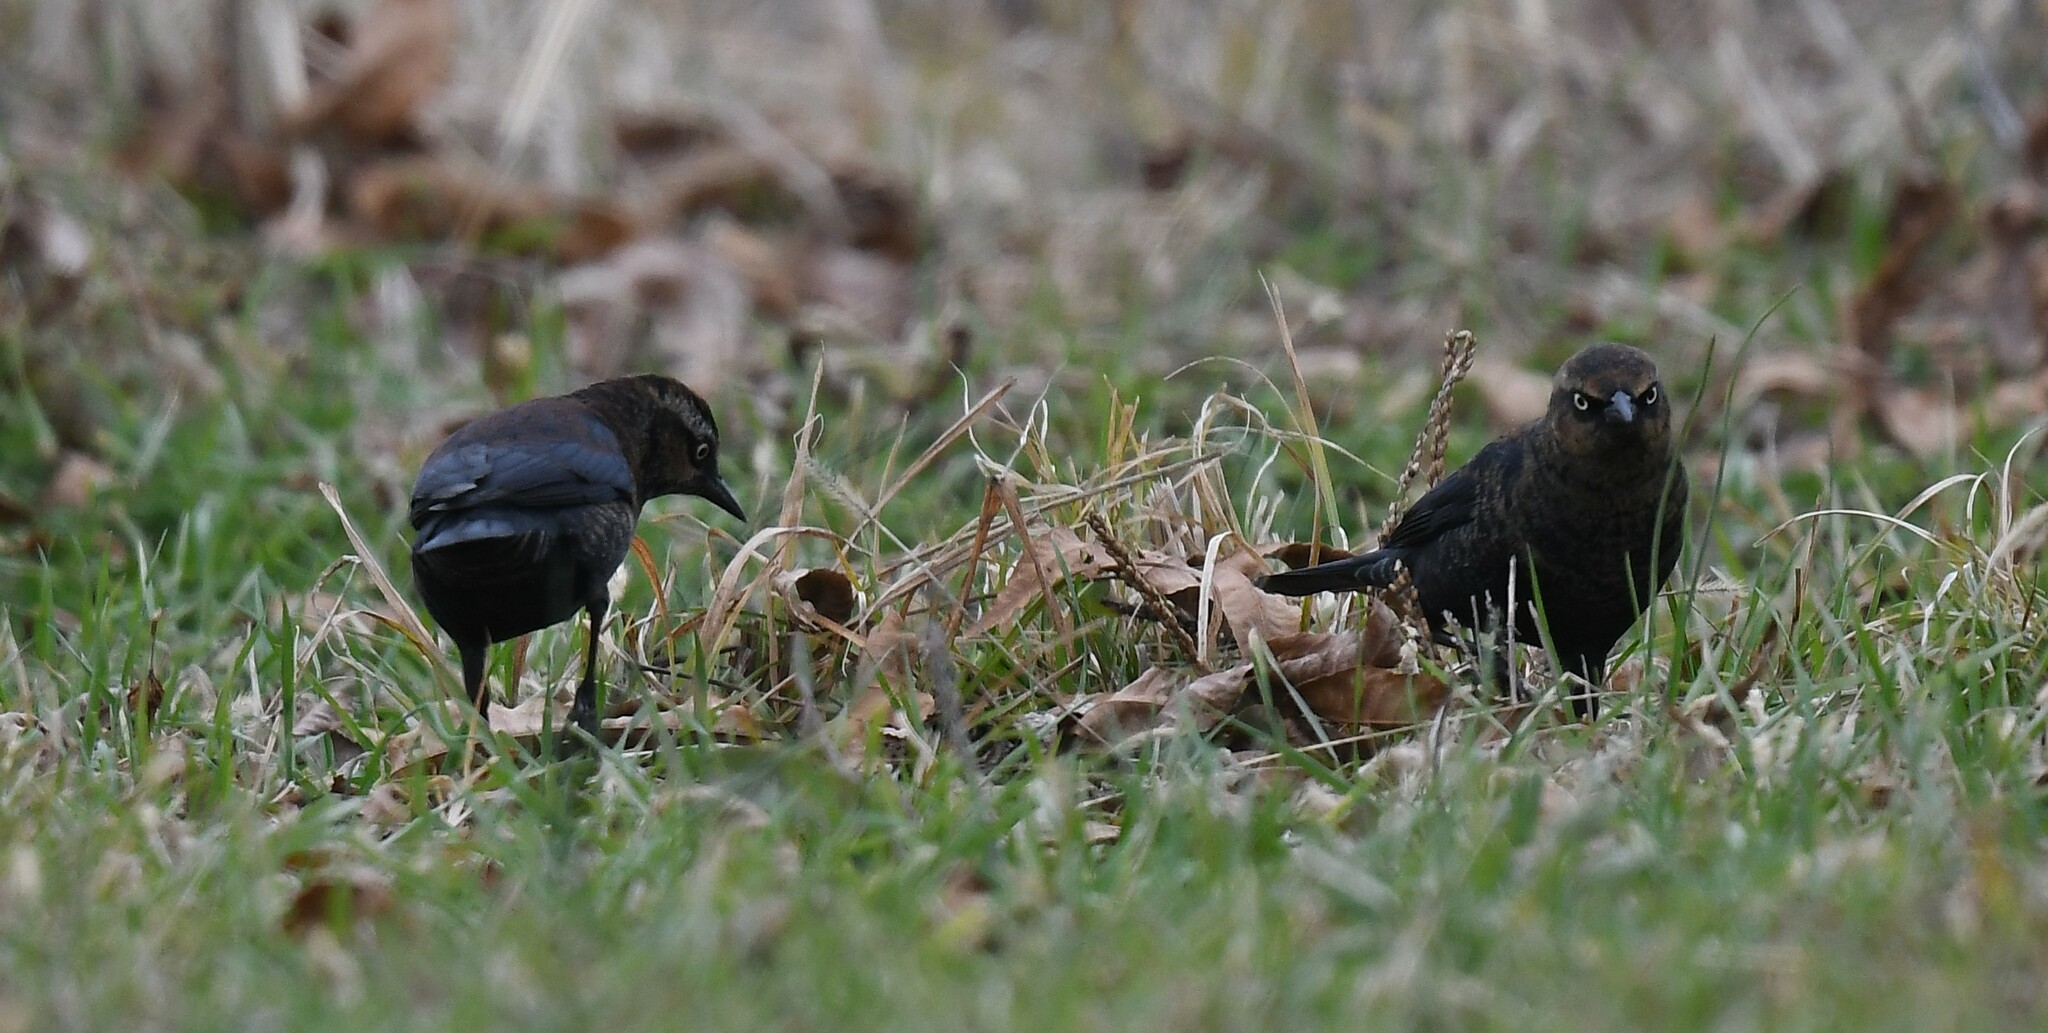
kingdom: Animalia
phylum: Chordata
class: Aves
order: Passeriformes
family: Icteridae
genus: Euphagus
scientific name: Euphagus carolinus
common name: Rusty blackbird
